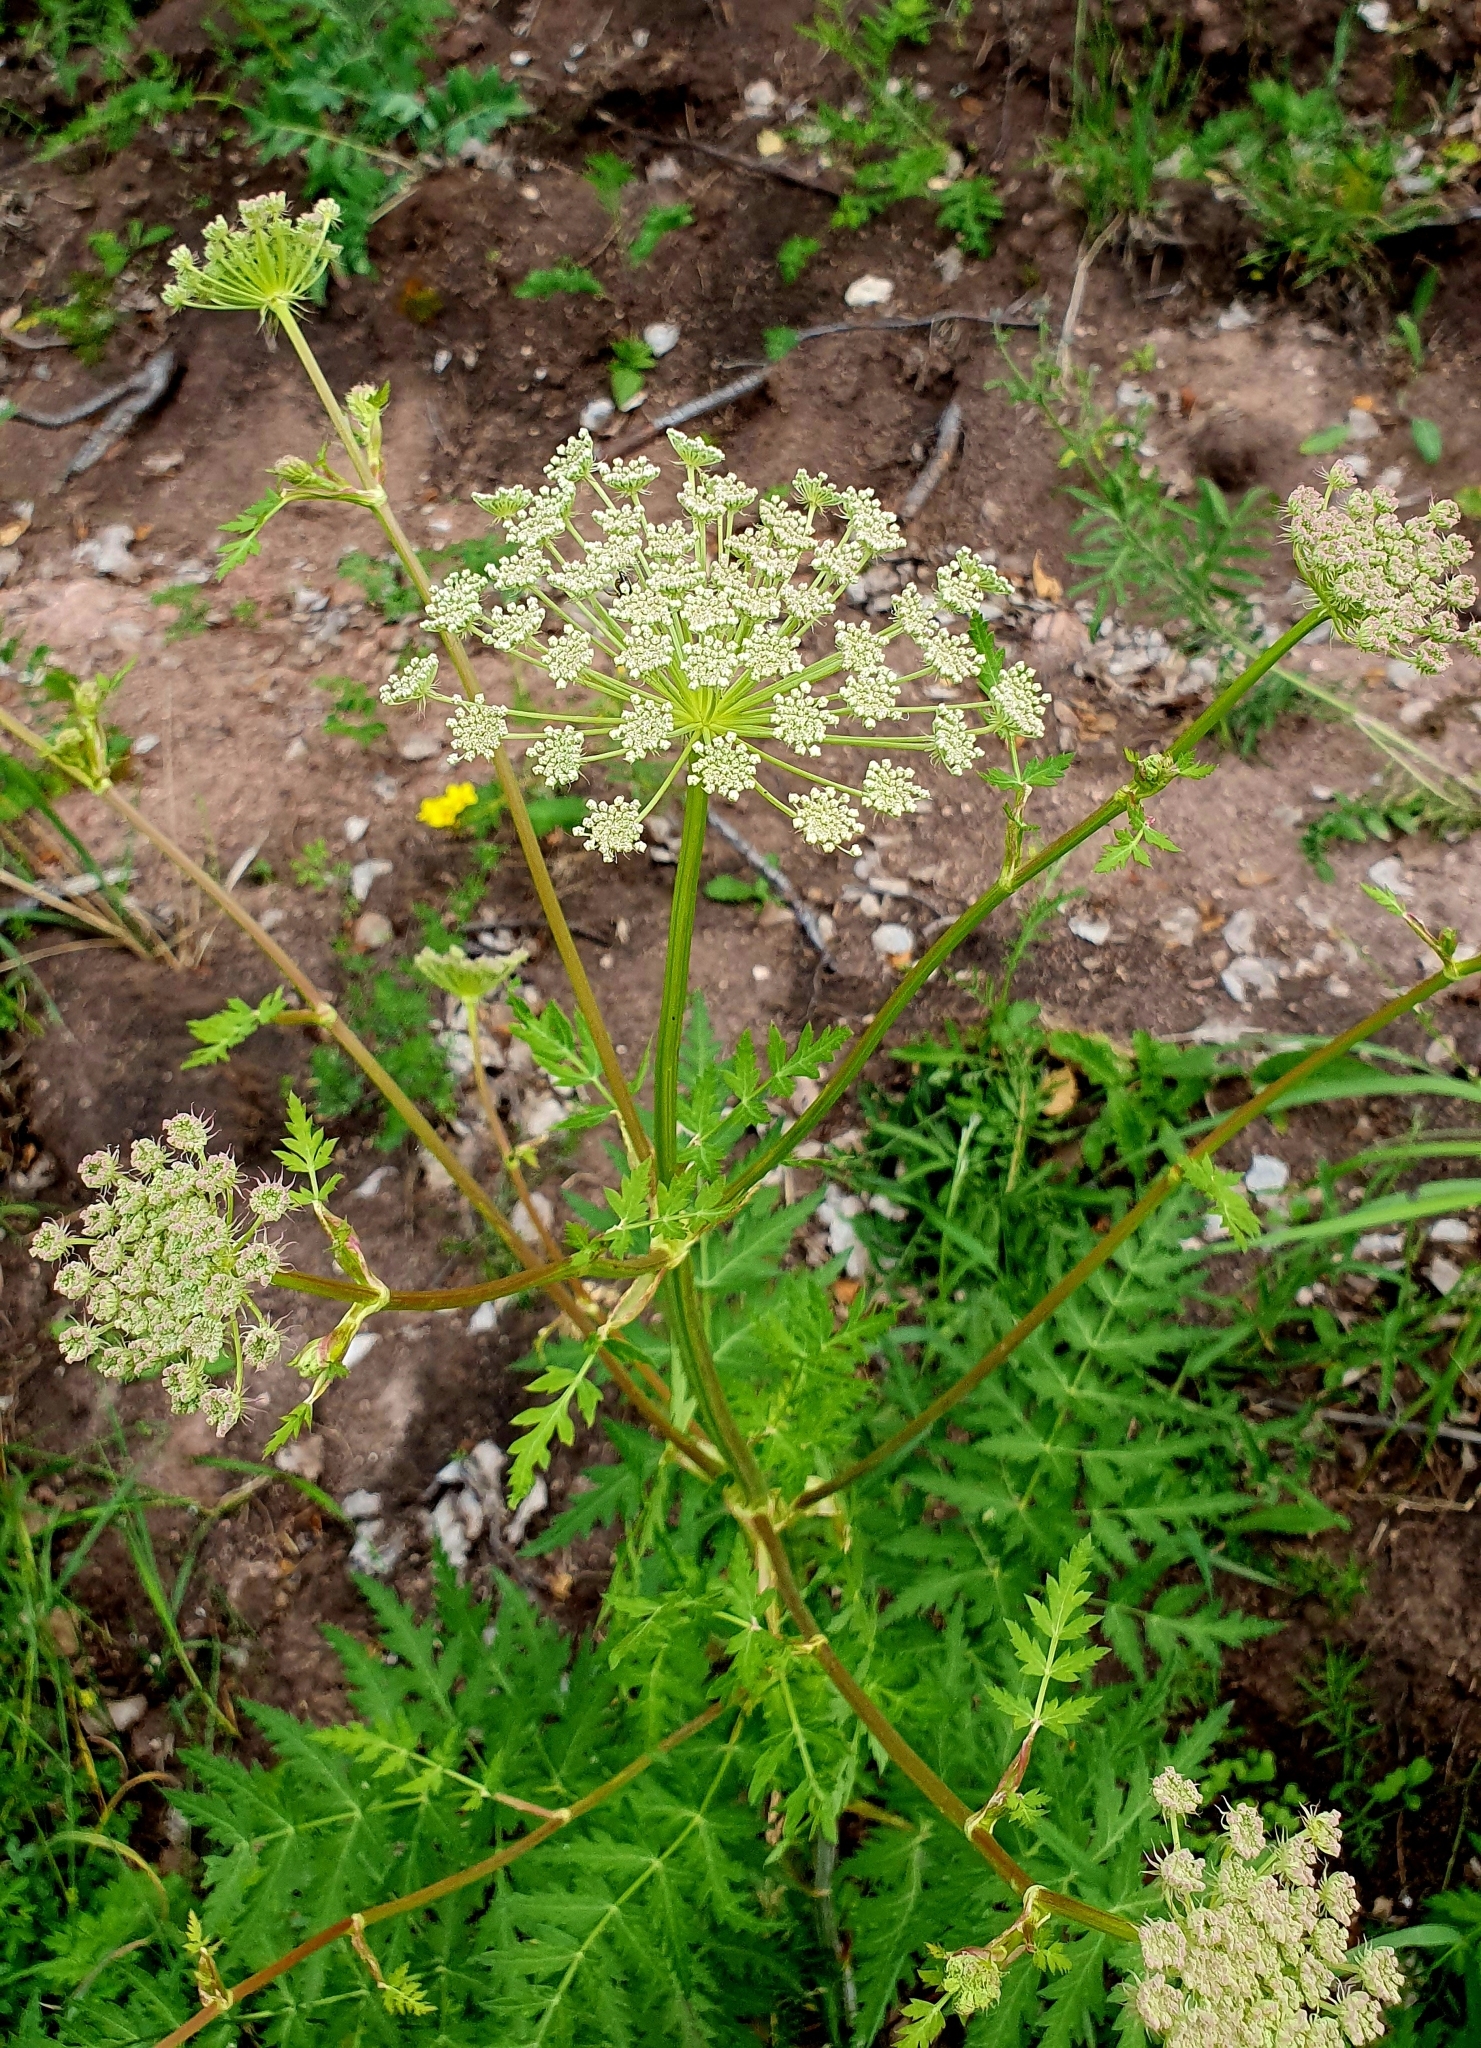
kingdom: Plantae
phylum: Tracheophyta
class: Magnoliopsida
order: Apiales
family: Apiaceae
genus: Seseli
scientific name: Seseli libanotis
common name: Mooncarrot
